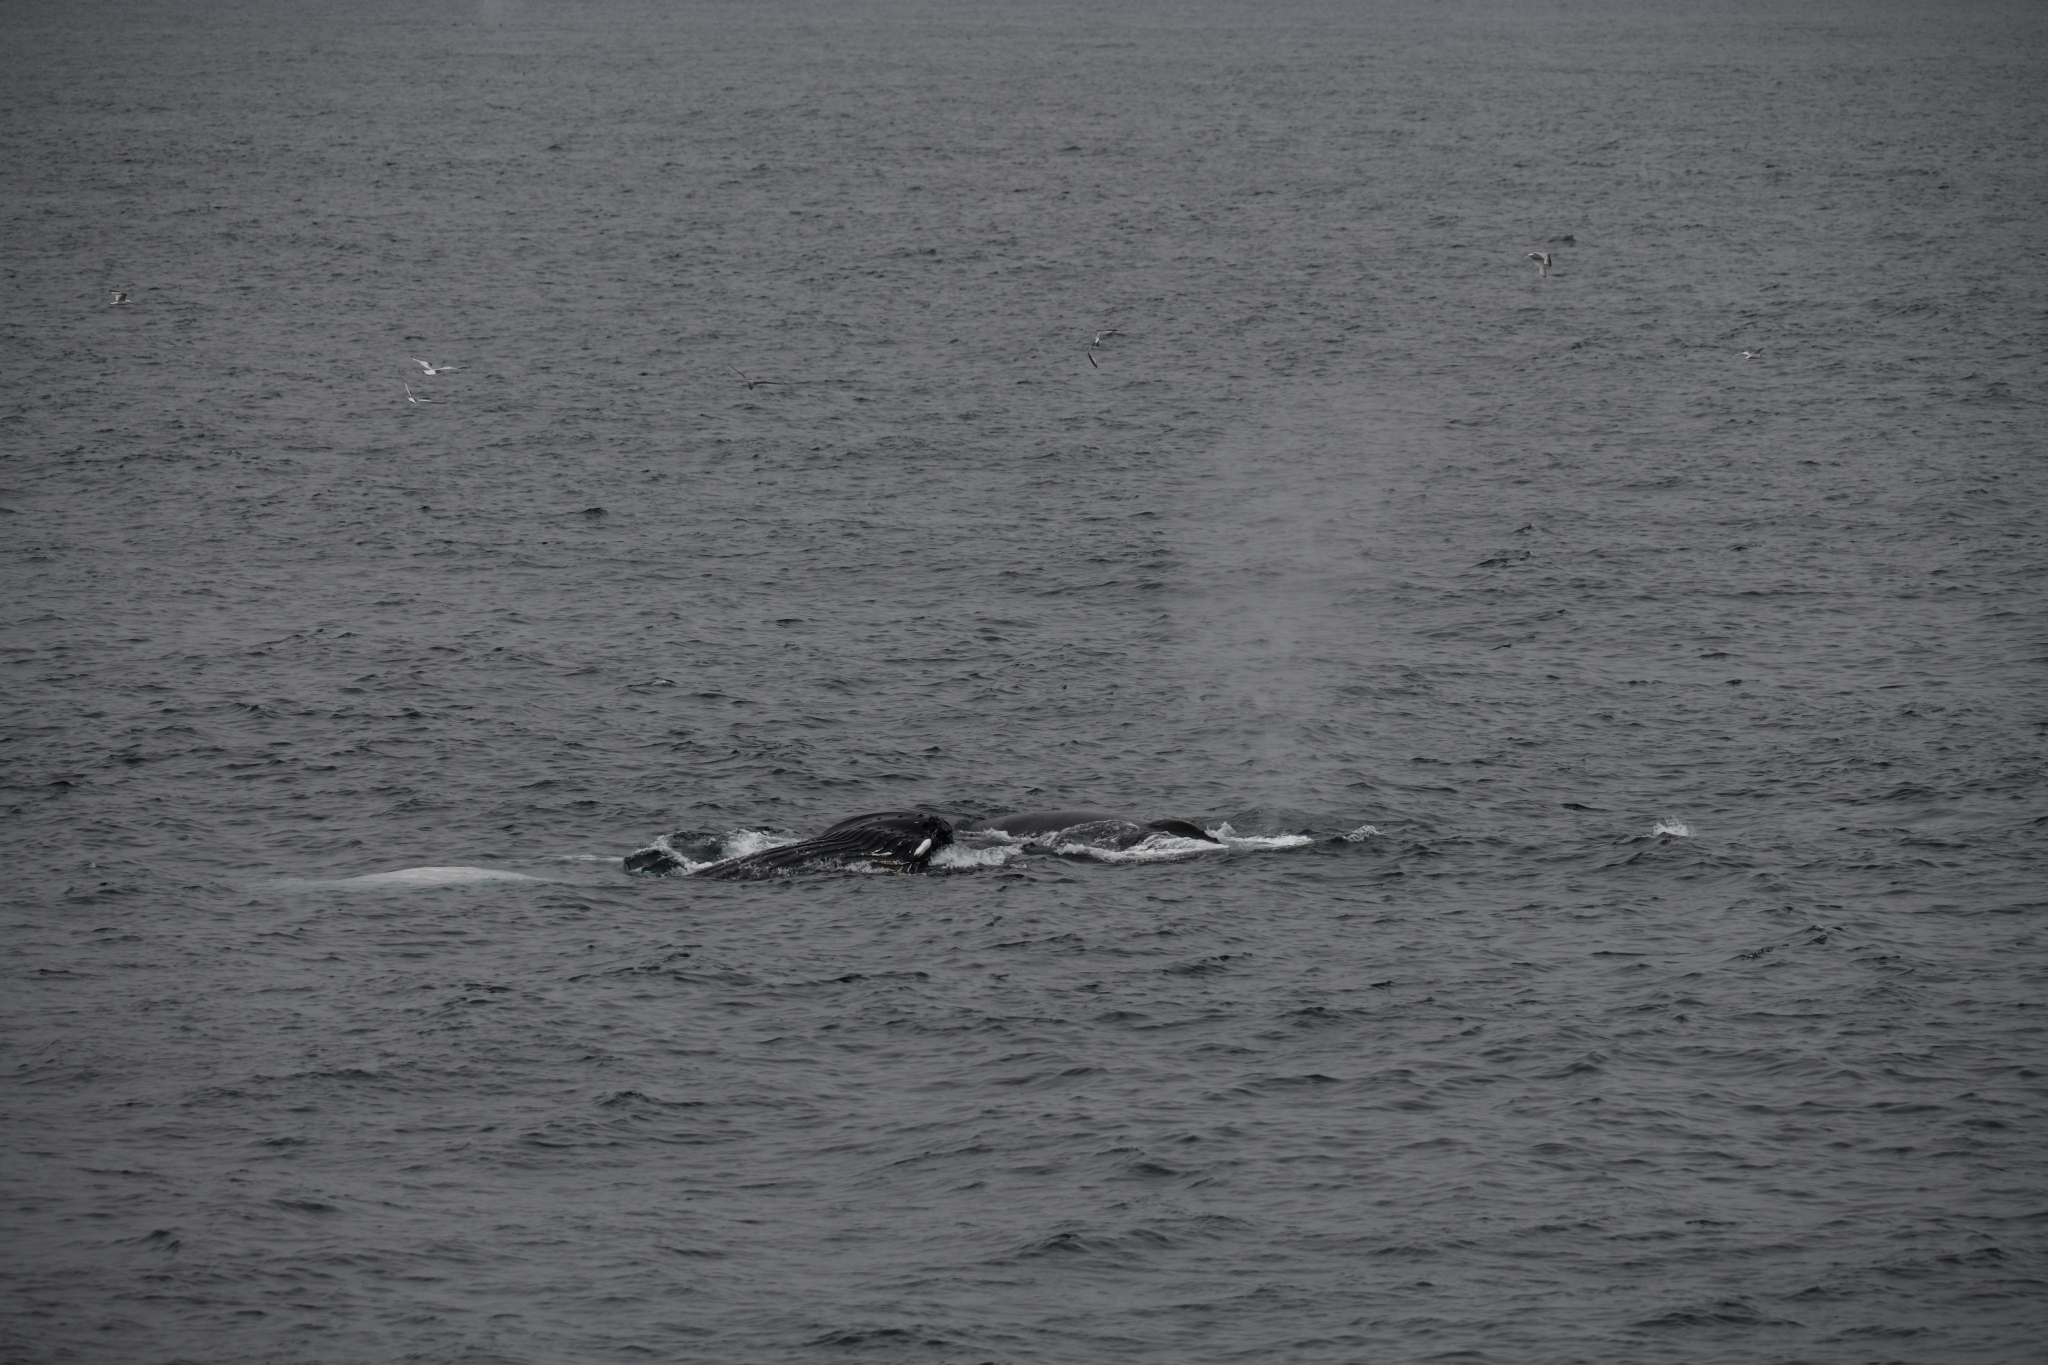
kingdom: Animalia
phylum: Chordata
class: Mammalia
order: Cetacea
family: Balaenopteridae
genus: Megaptera
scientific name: Megaptera novaeangliae
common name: Humpback whale
